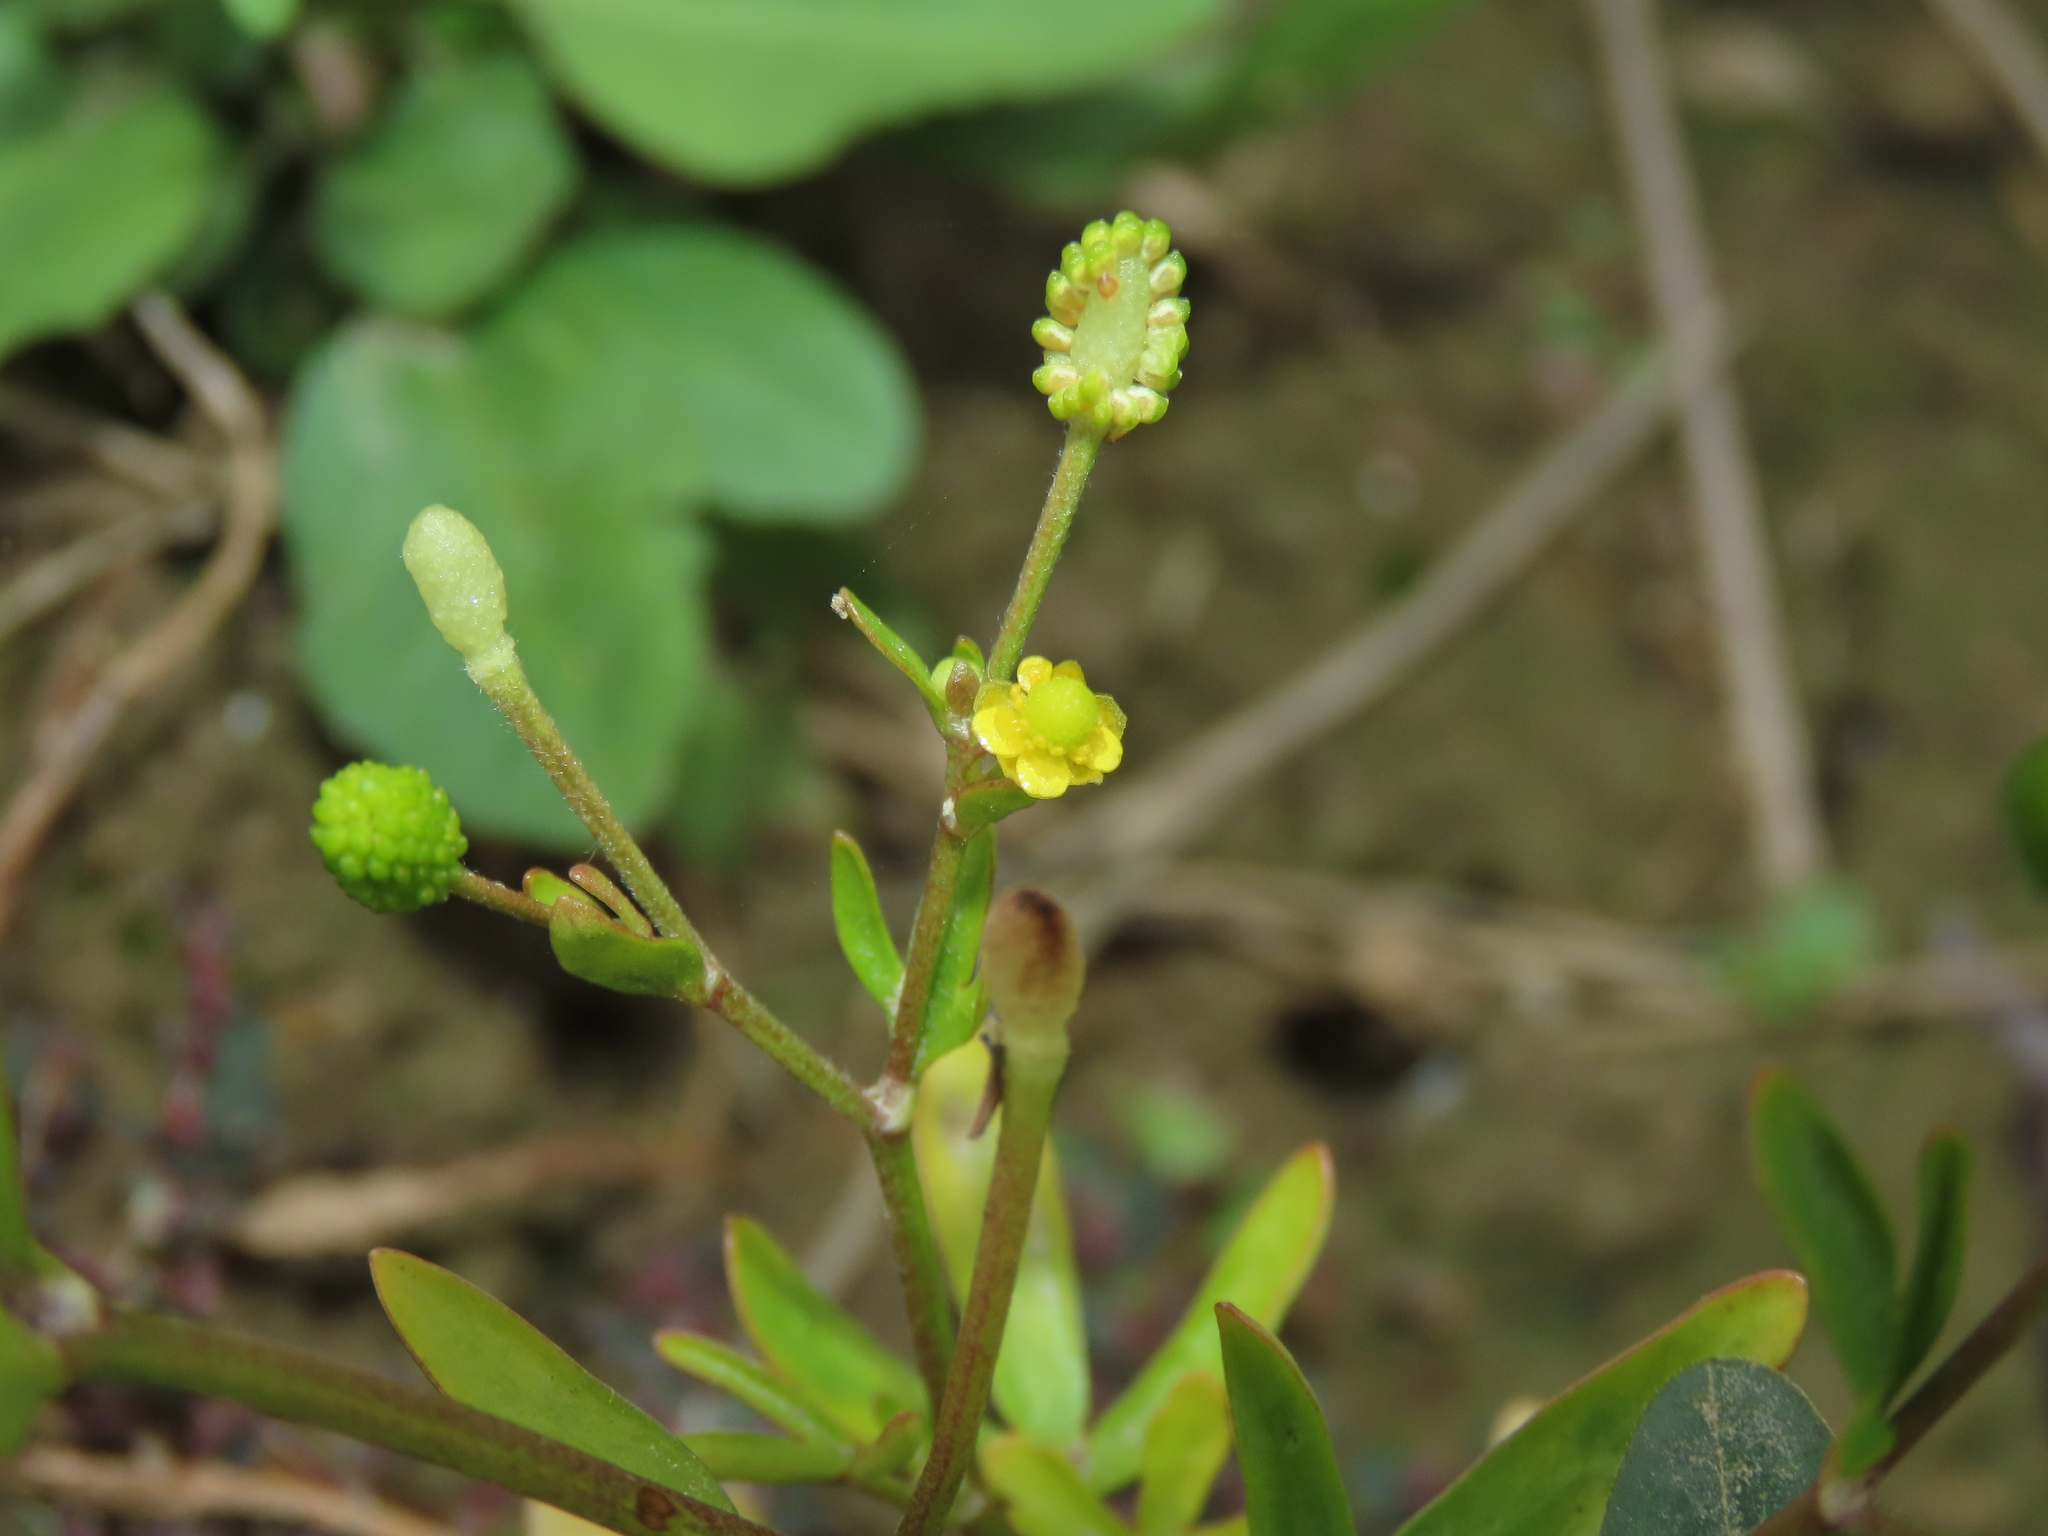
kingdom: Plantae
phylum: Tracheophyta
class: Magnoliopsida
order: Ranunculales
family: Ranunculaceae
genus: Ranunculus
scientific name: Ranunculus sceleratus
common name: Celery-leaved buttercup
